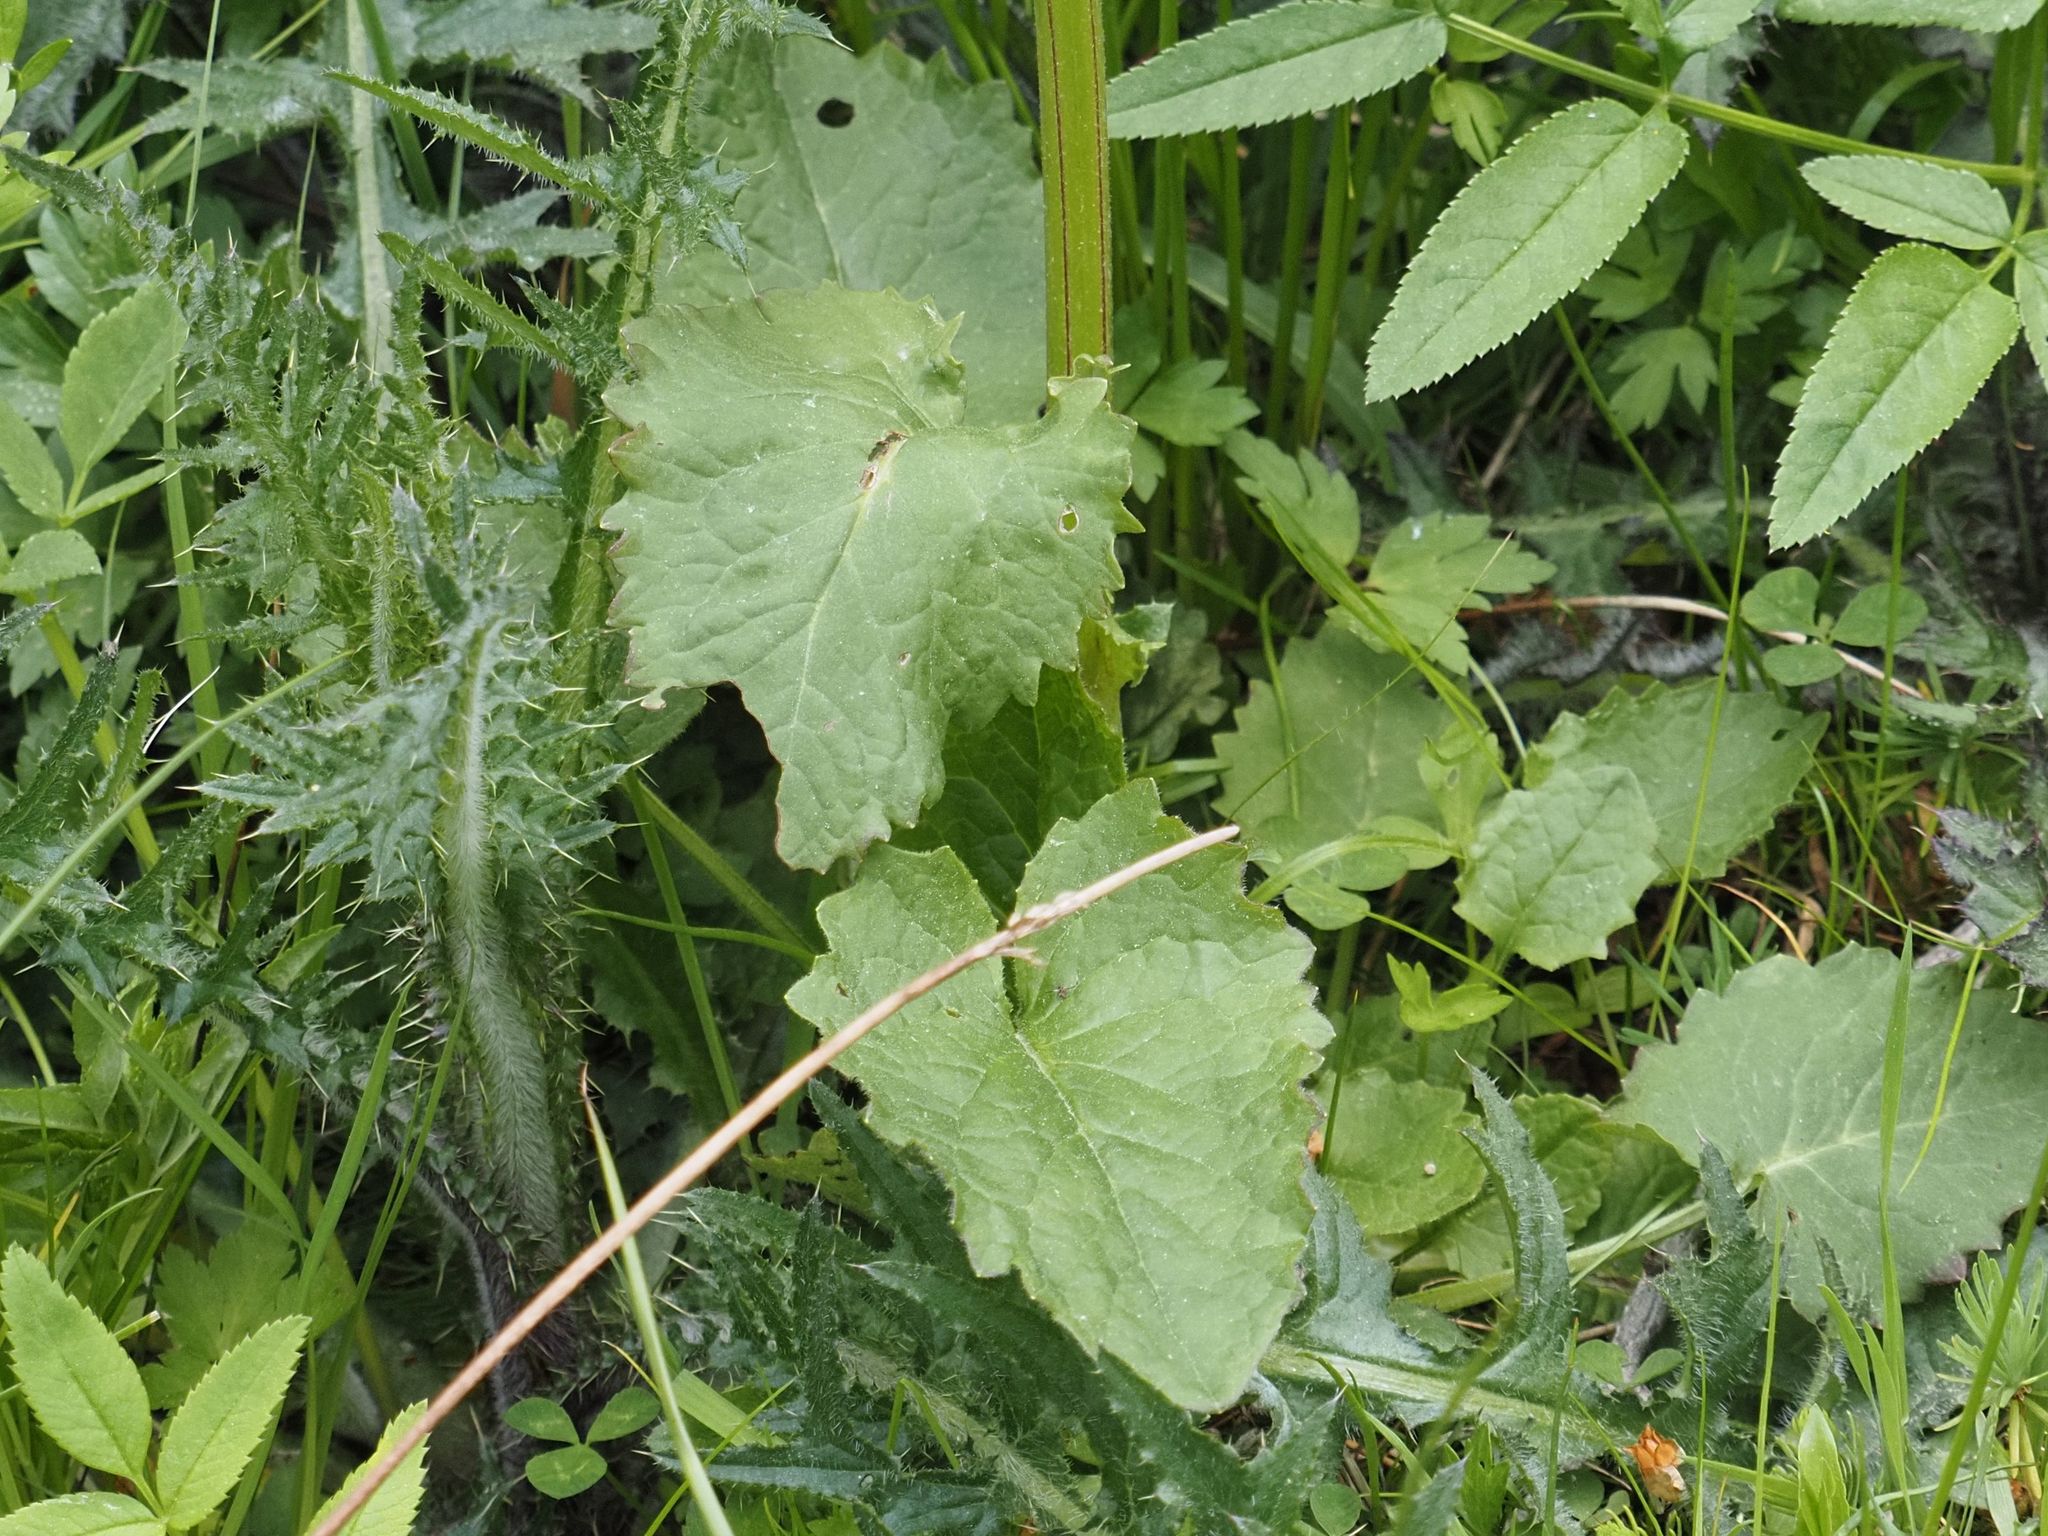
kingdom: Plantae
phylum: Tracheophyta
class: Magnoliopsida
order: Asterales
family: Asteraceae
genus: Tephroseris
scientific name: Tephroseris crispa
